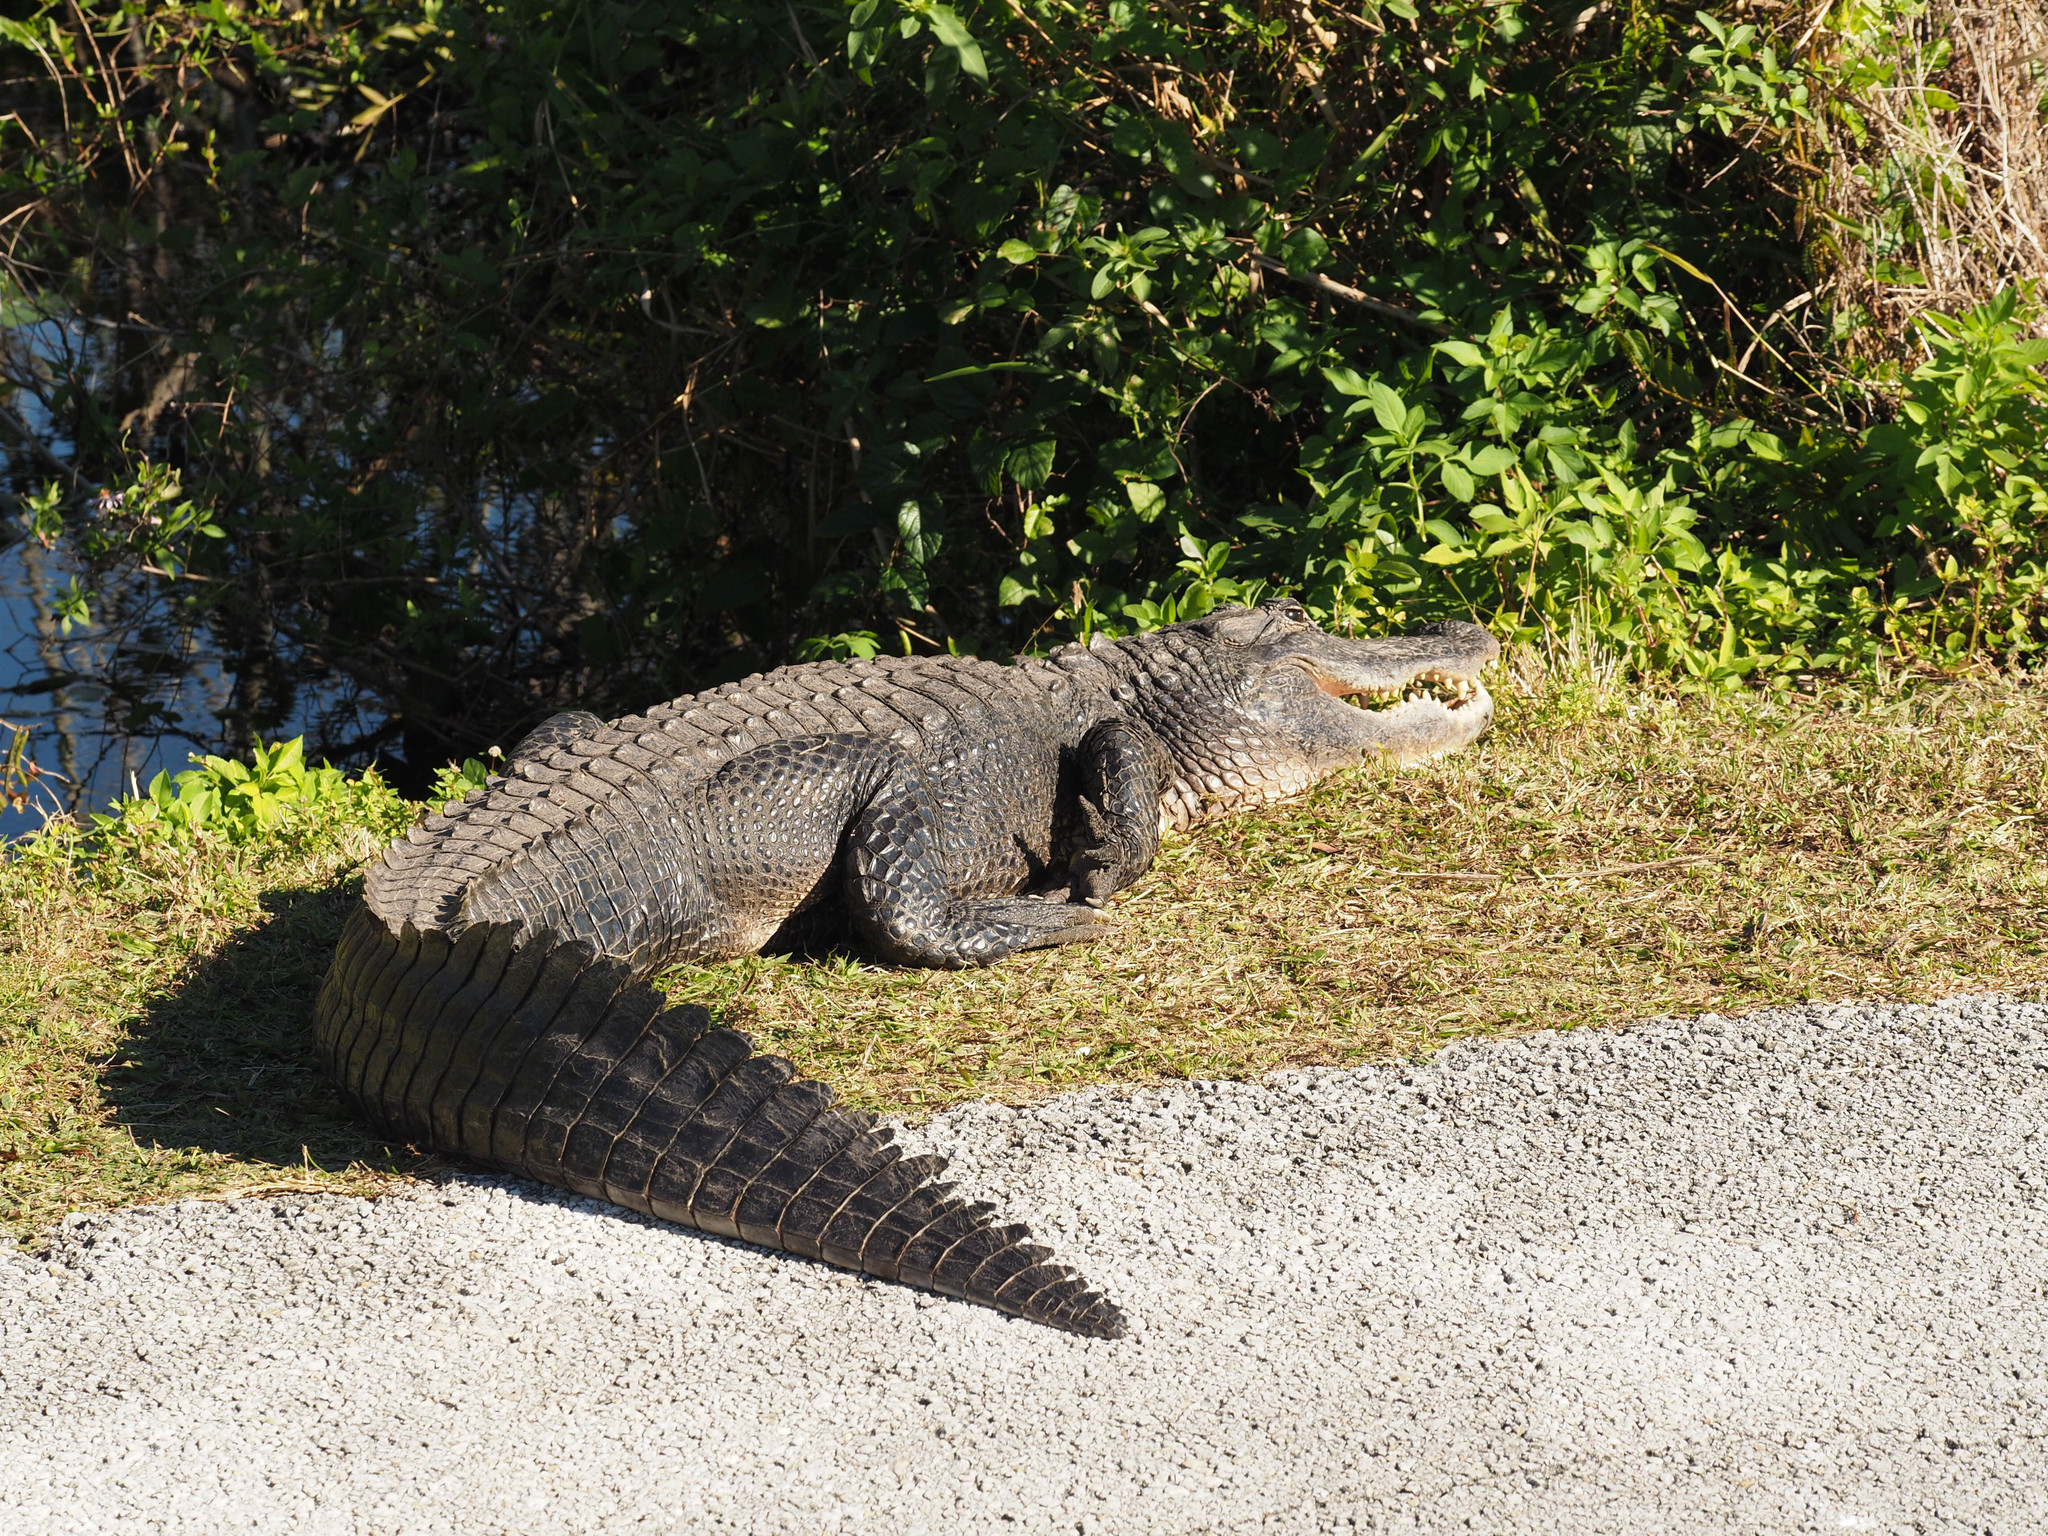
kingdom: Animalia
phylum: Chordata
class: Crocodylia
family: Alligatoridae
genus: Alligator
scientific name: Alligator mississippiensis
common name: American alligator
